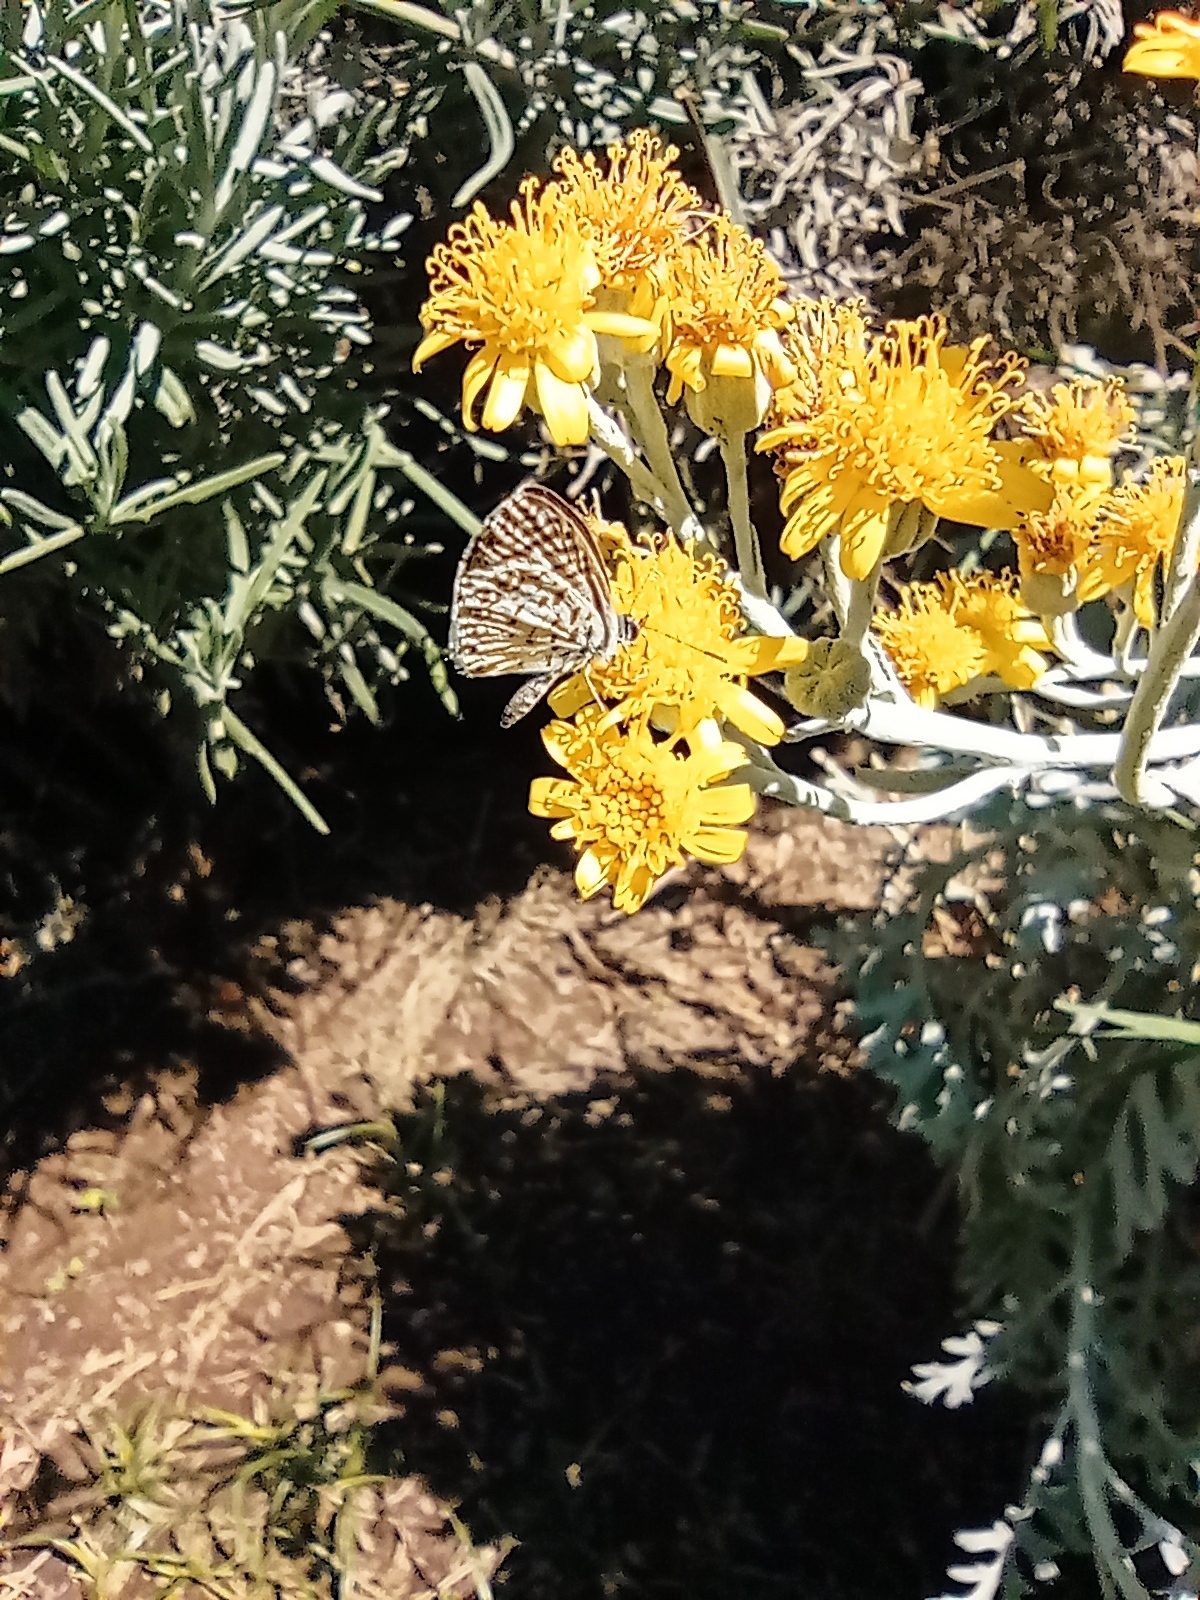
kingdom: Animalia
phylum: Arthropoda
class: Insecta
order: Lepidoptera
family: Lycaenidae
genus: Leptotes
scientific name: Leptotes cassius
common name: Cassius blue
